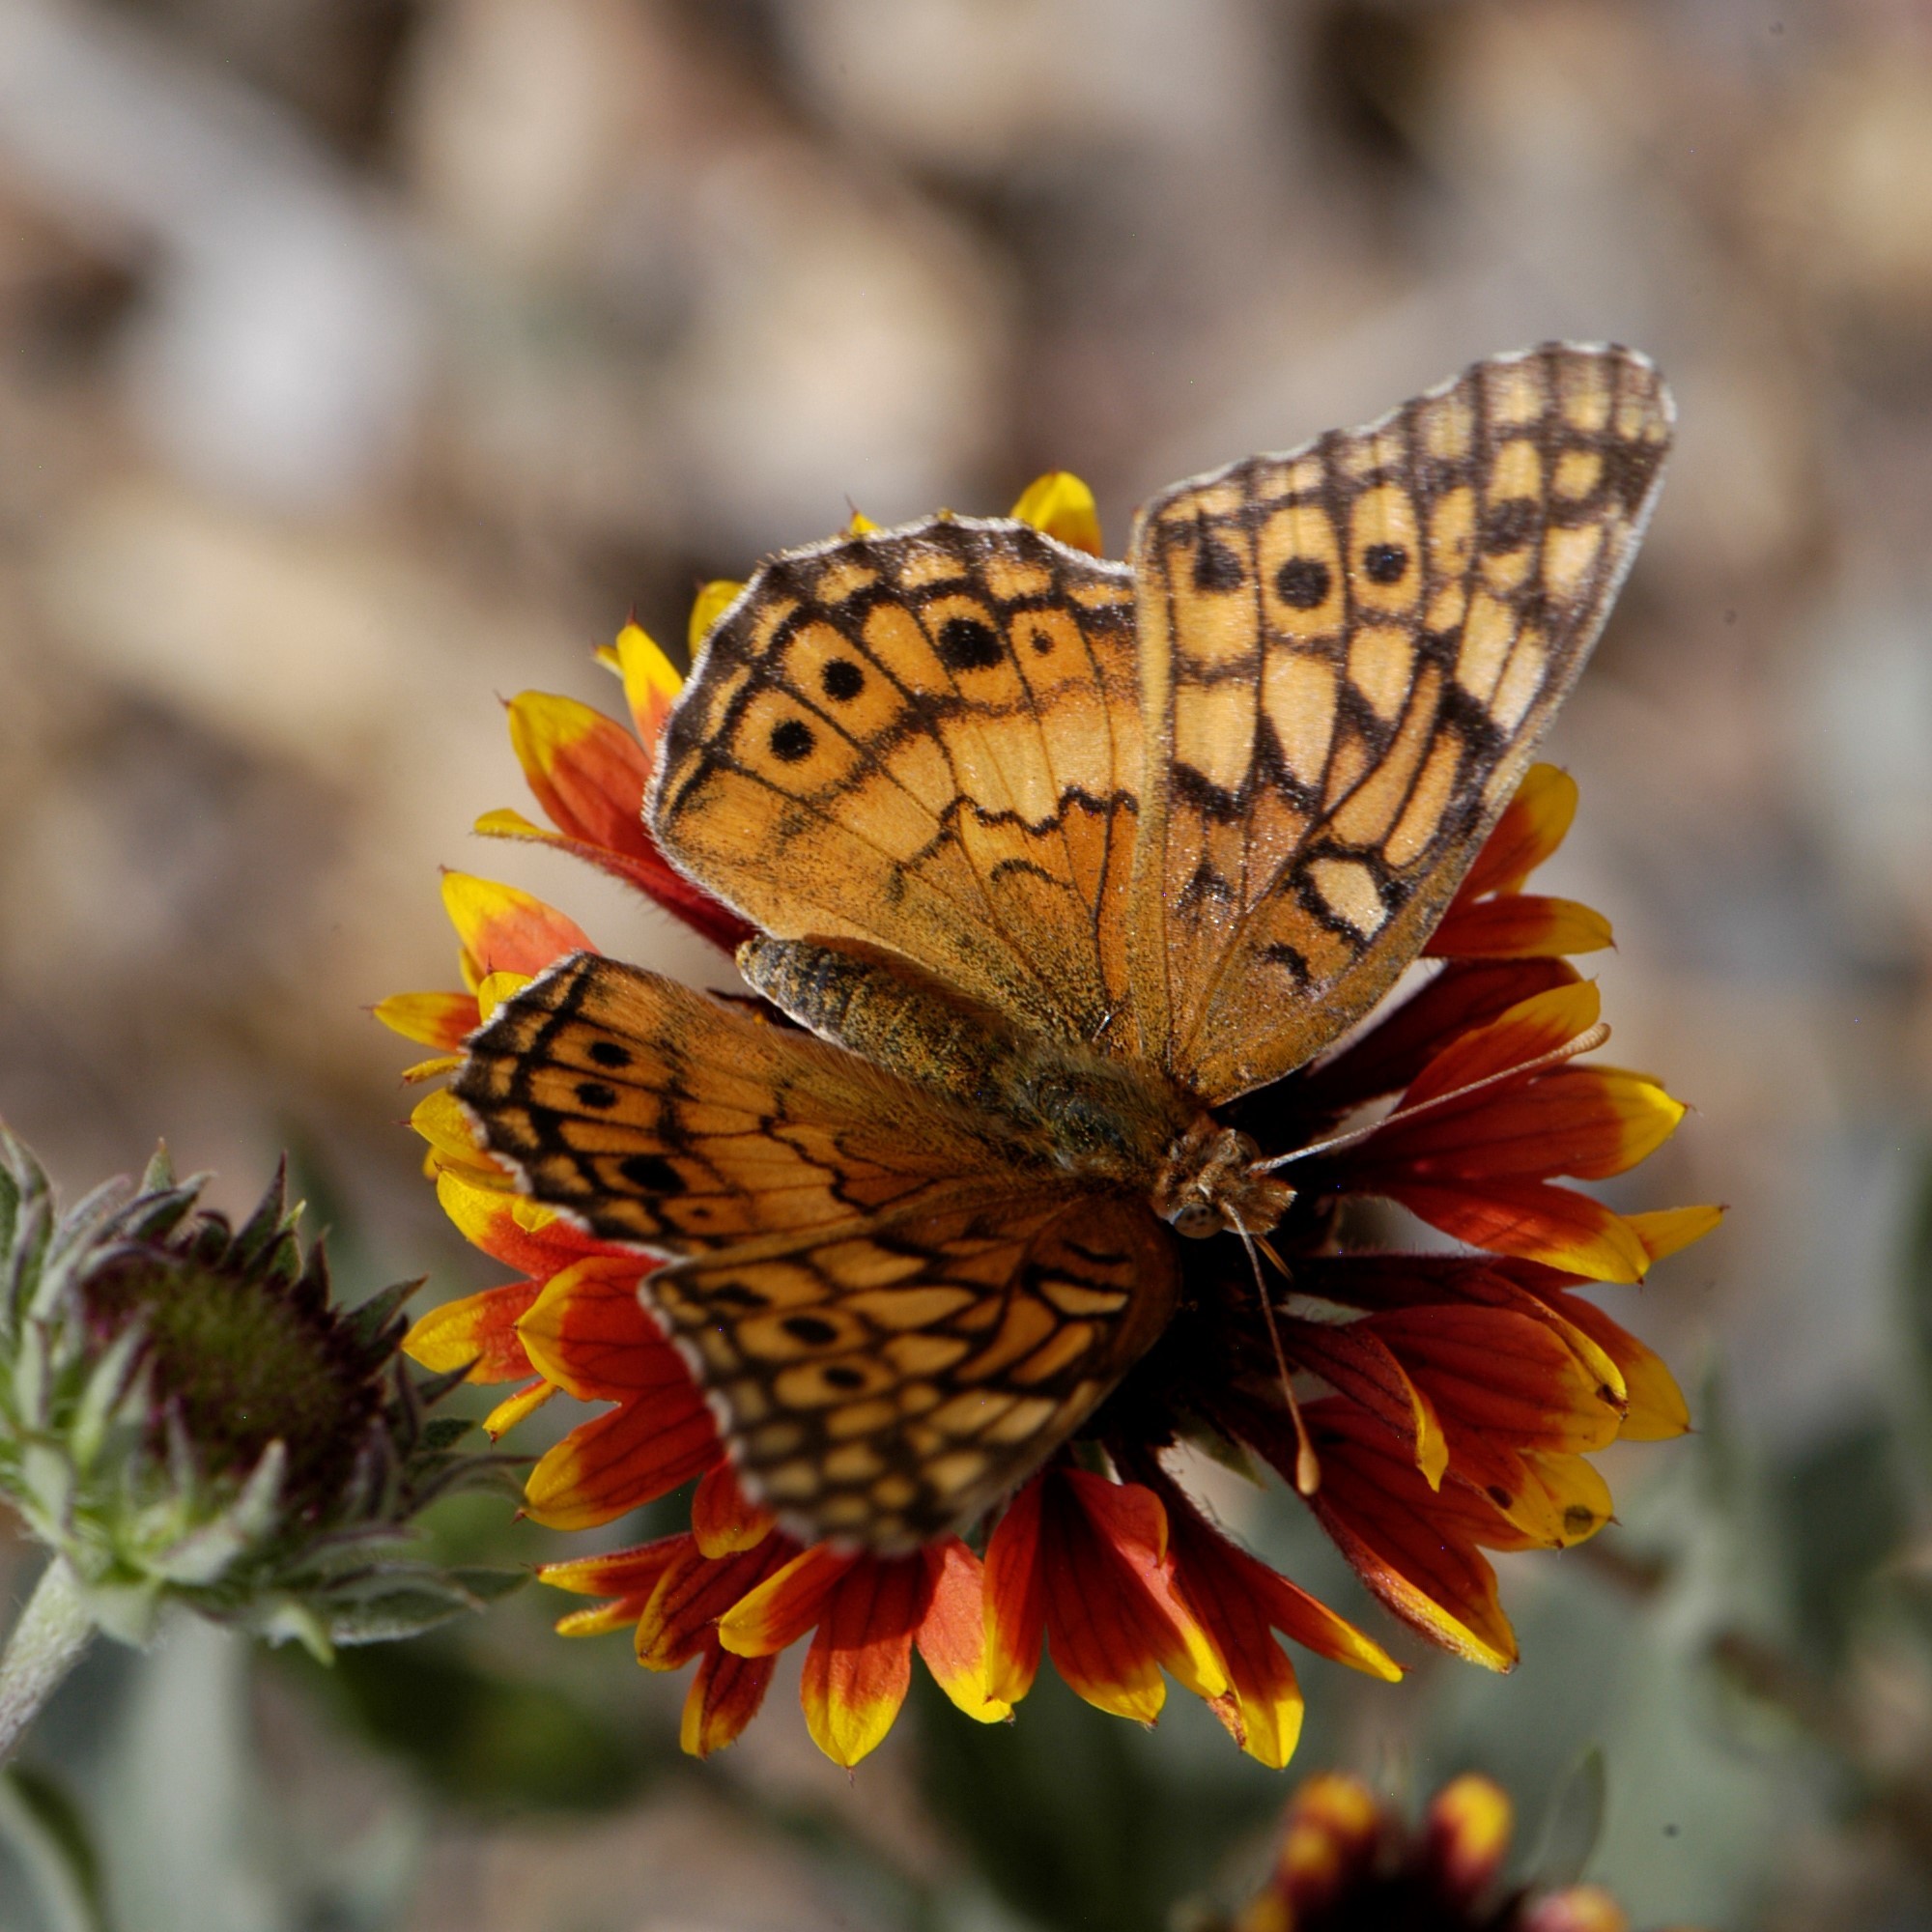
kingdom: Animalia
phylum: Arthropoda
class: Insecta
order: Lepidoptera
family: Nymphalidae
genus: Euptoieta
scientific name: Euptoieta claudia
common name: Variegated fritillary
